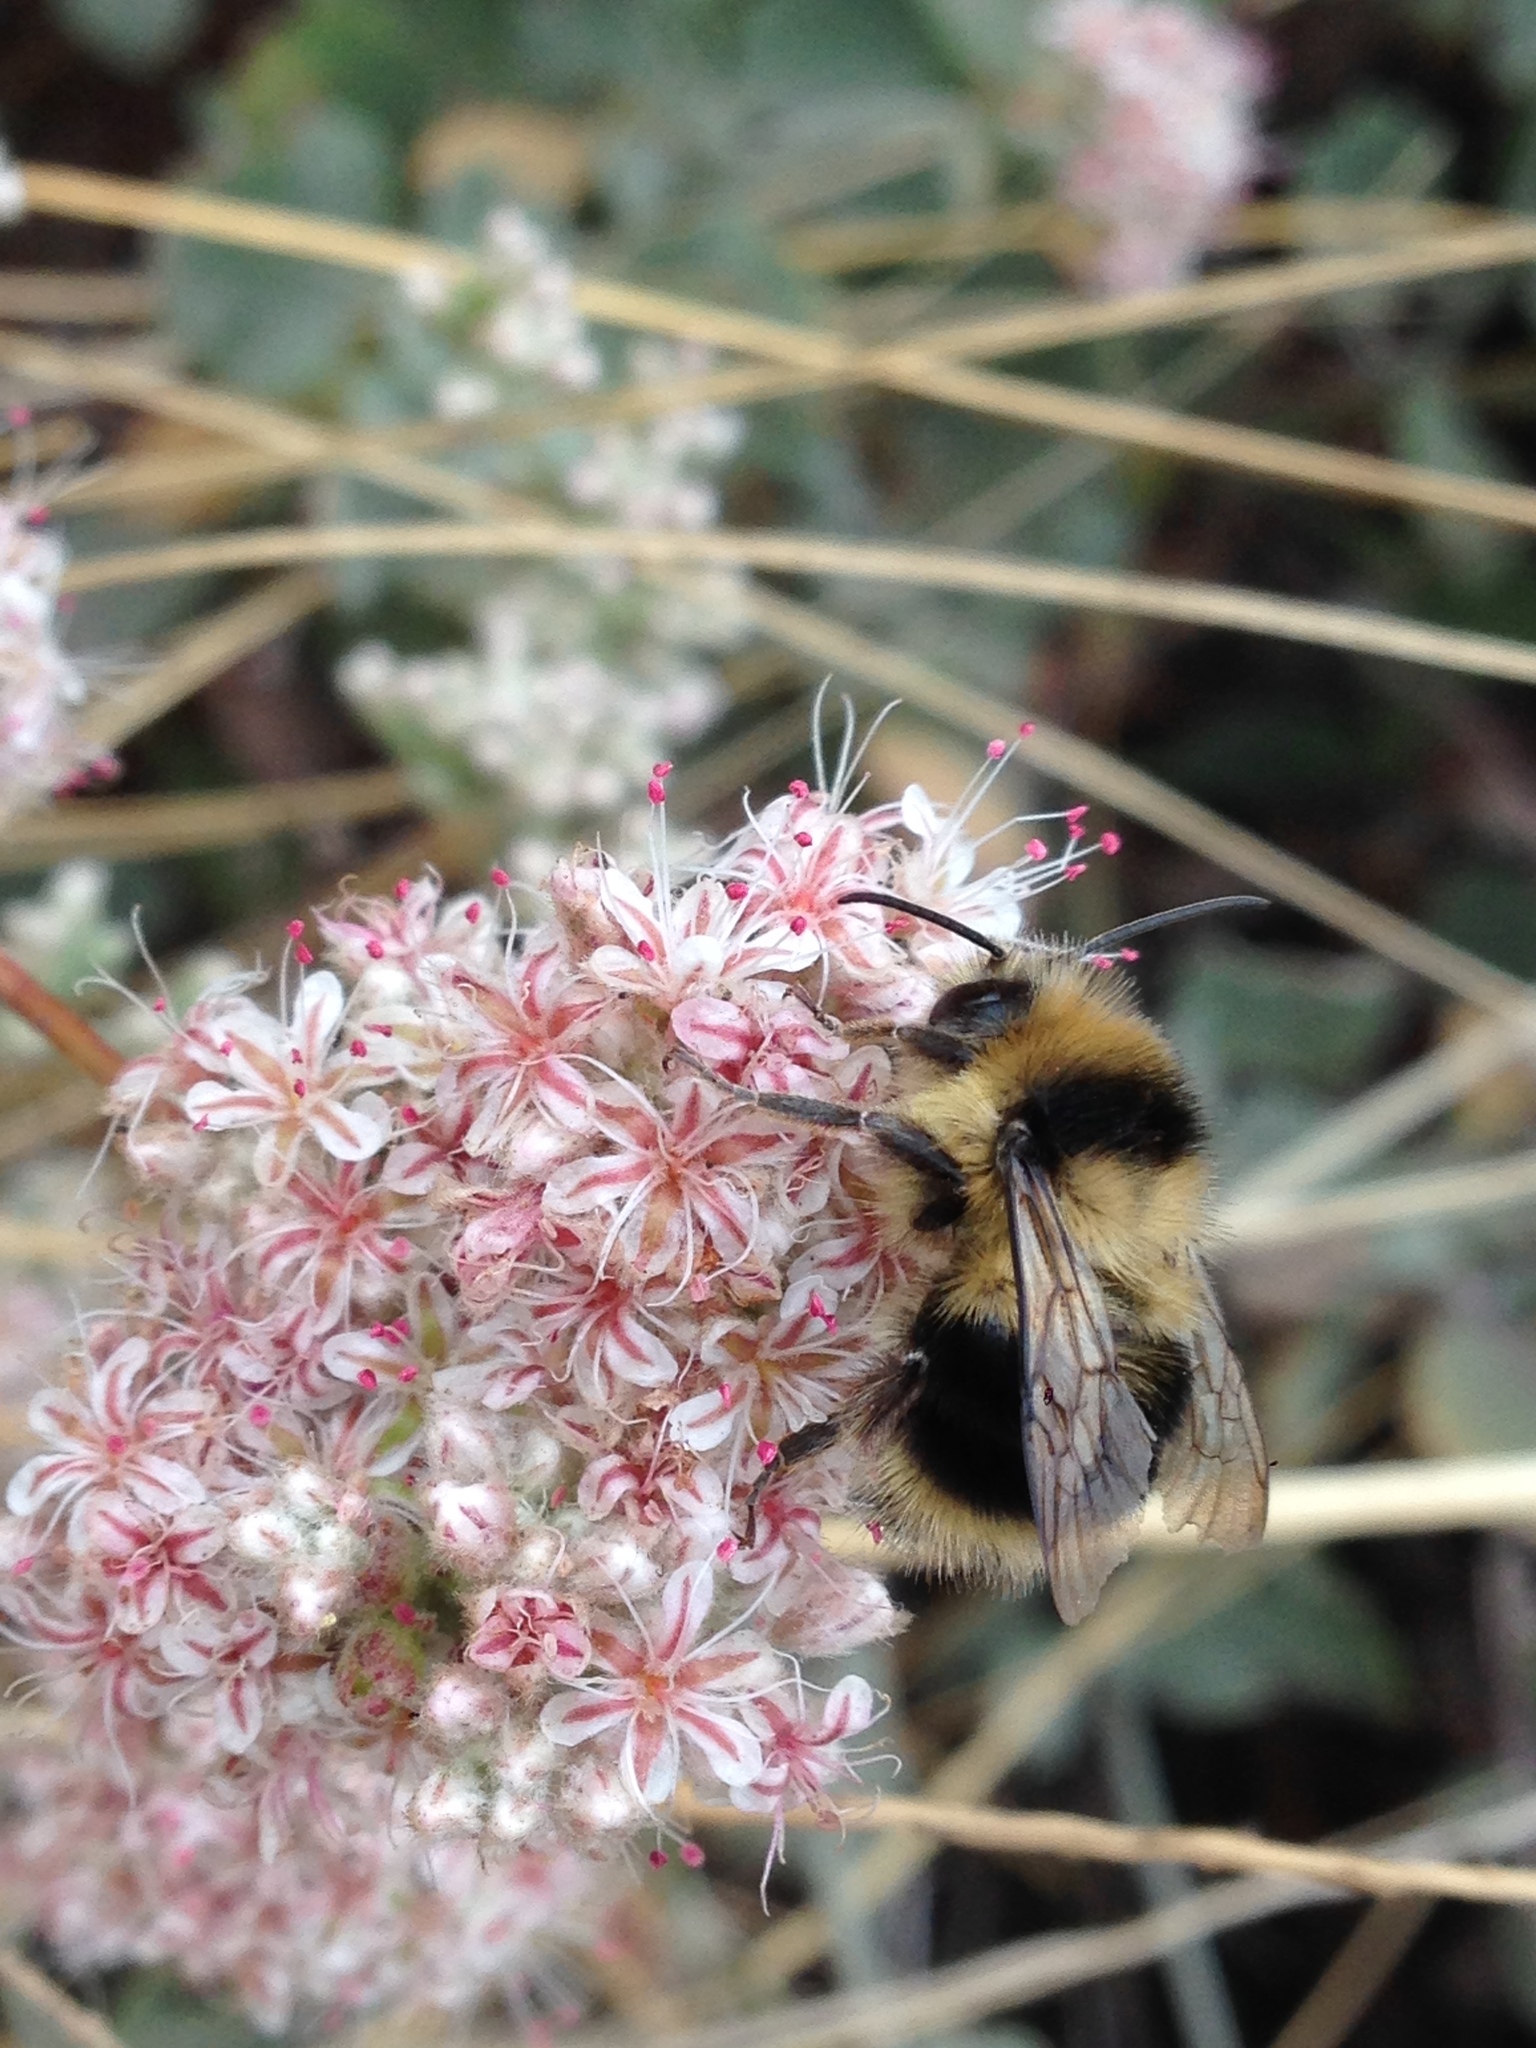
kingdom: Animalia
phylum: Arthropoda
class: Insecta
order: Hymenoptera
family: Apidae
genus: Bombus
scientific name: Bombus melanopygus
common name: Black tail bumble bee
